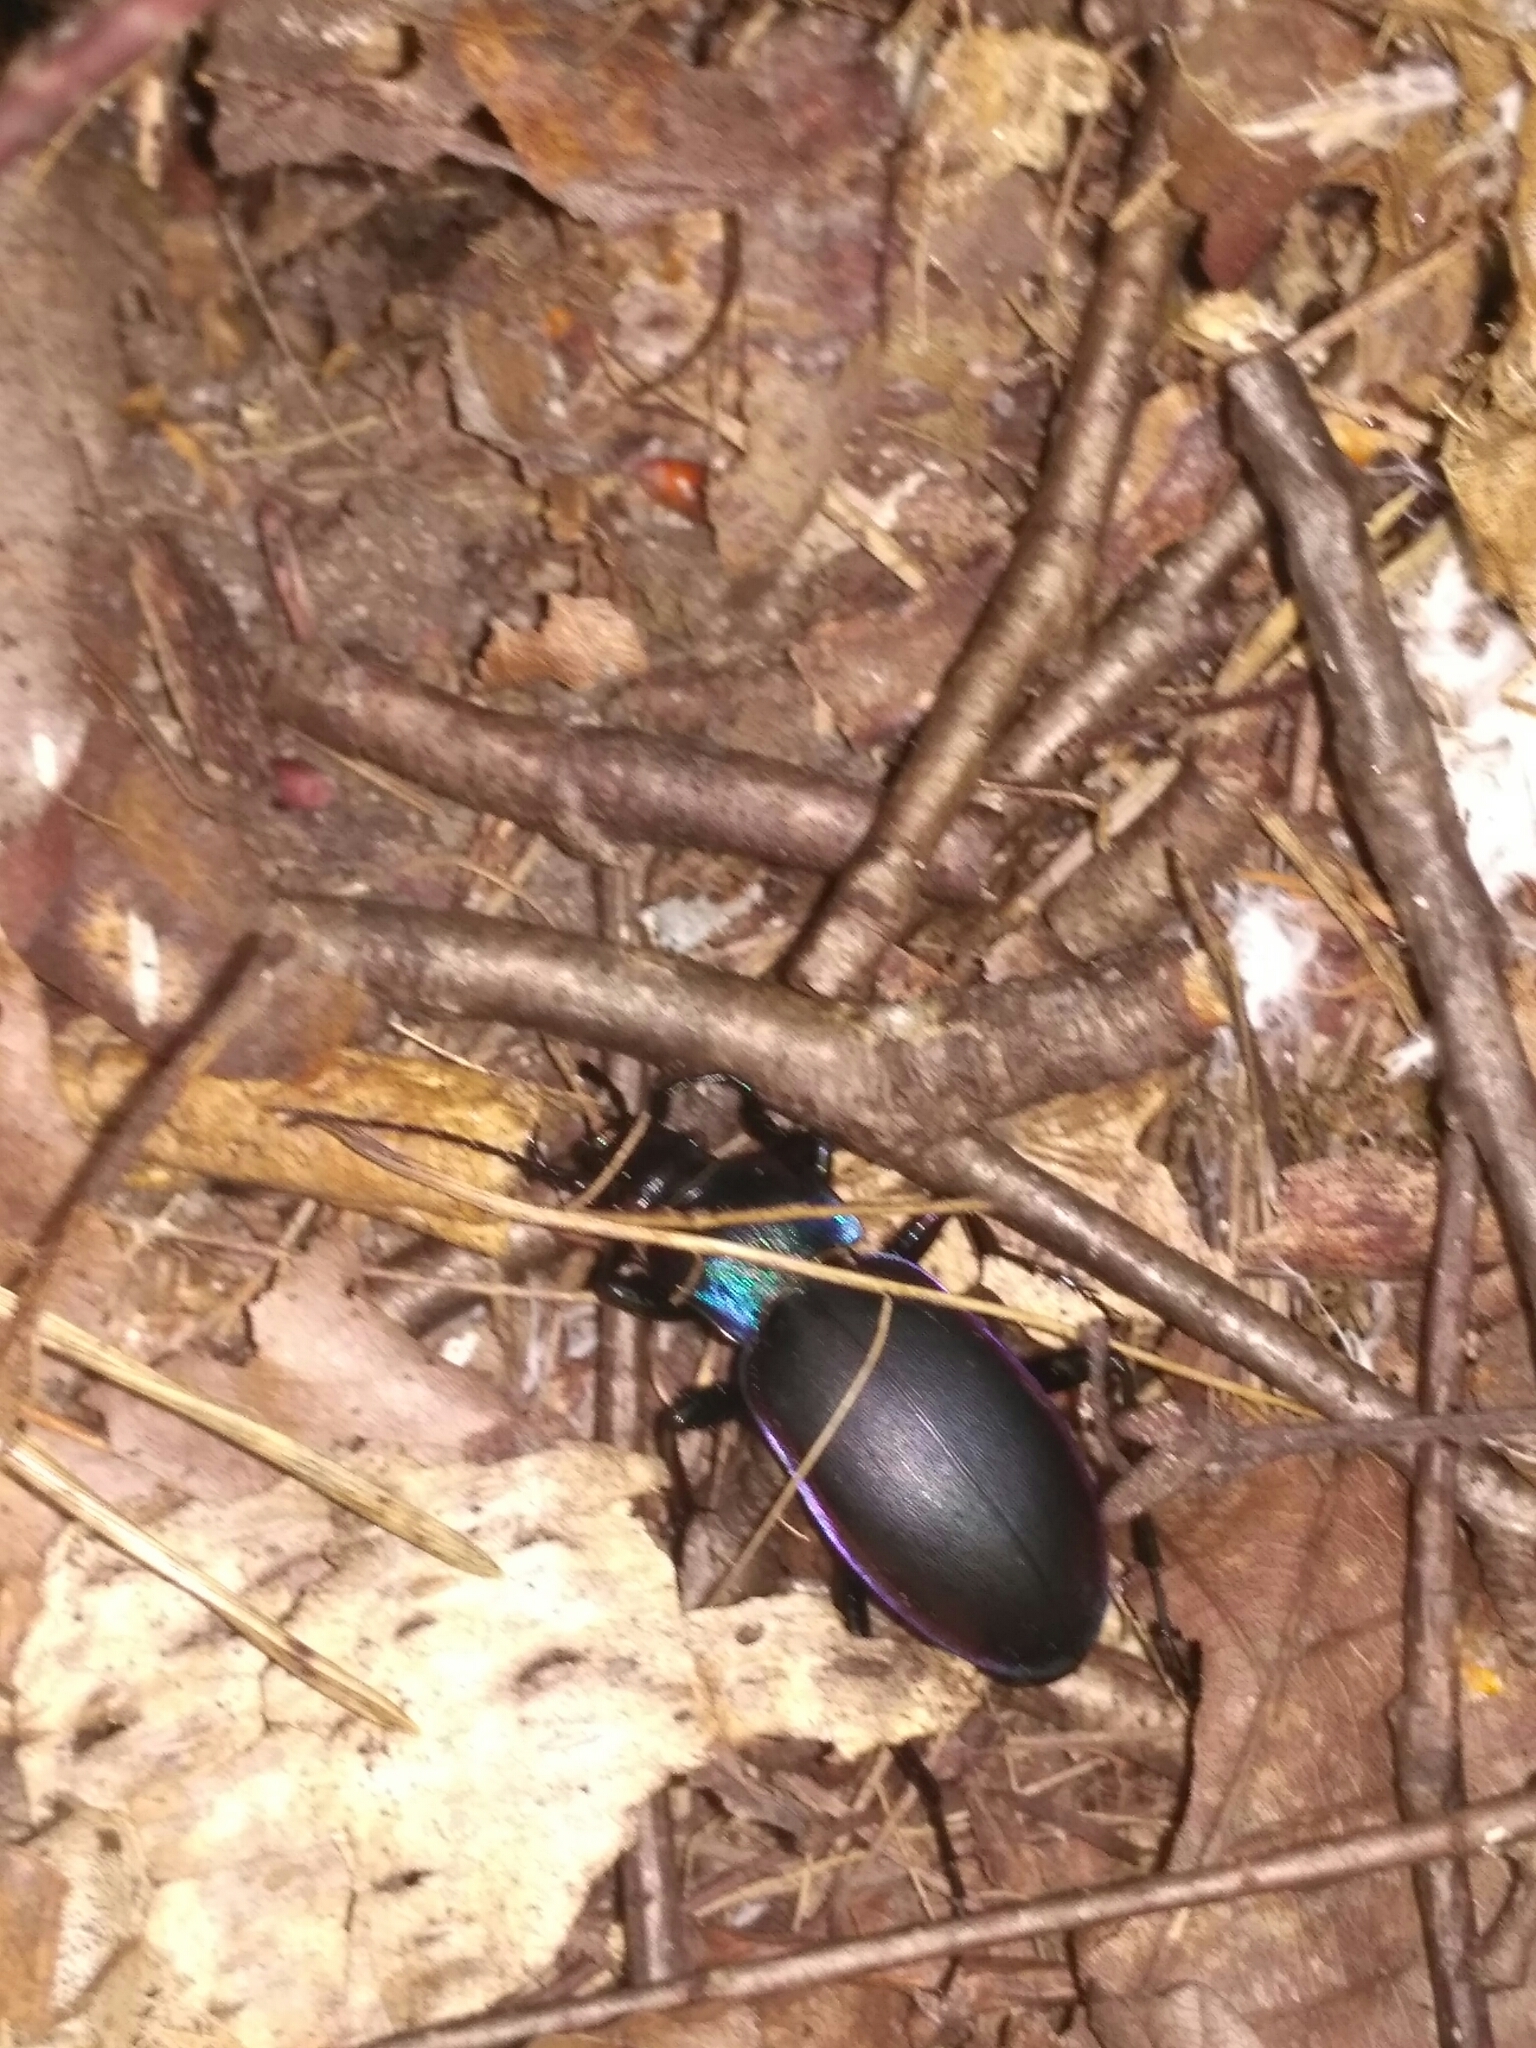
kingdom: Animalia
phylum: Arthropoda
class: Insecta
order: Coleoptera
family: Carabidae
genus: Carabus
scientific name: Carabus violaceus
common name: Violet ground beetle
